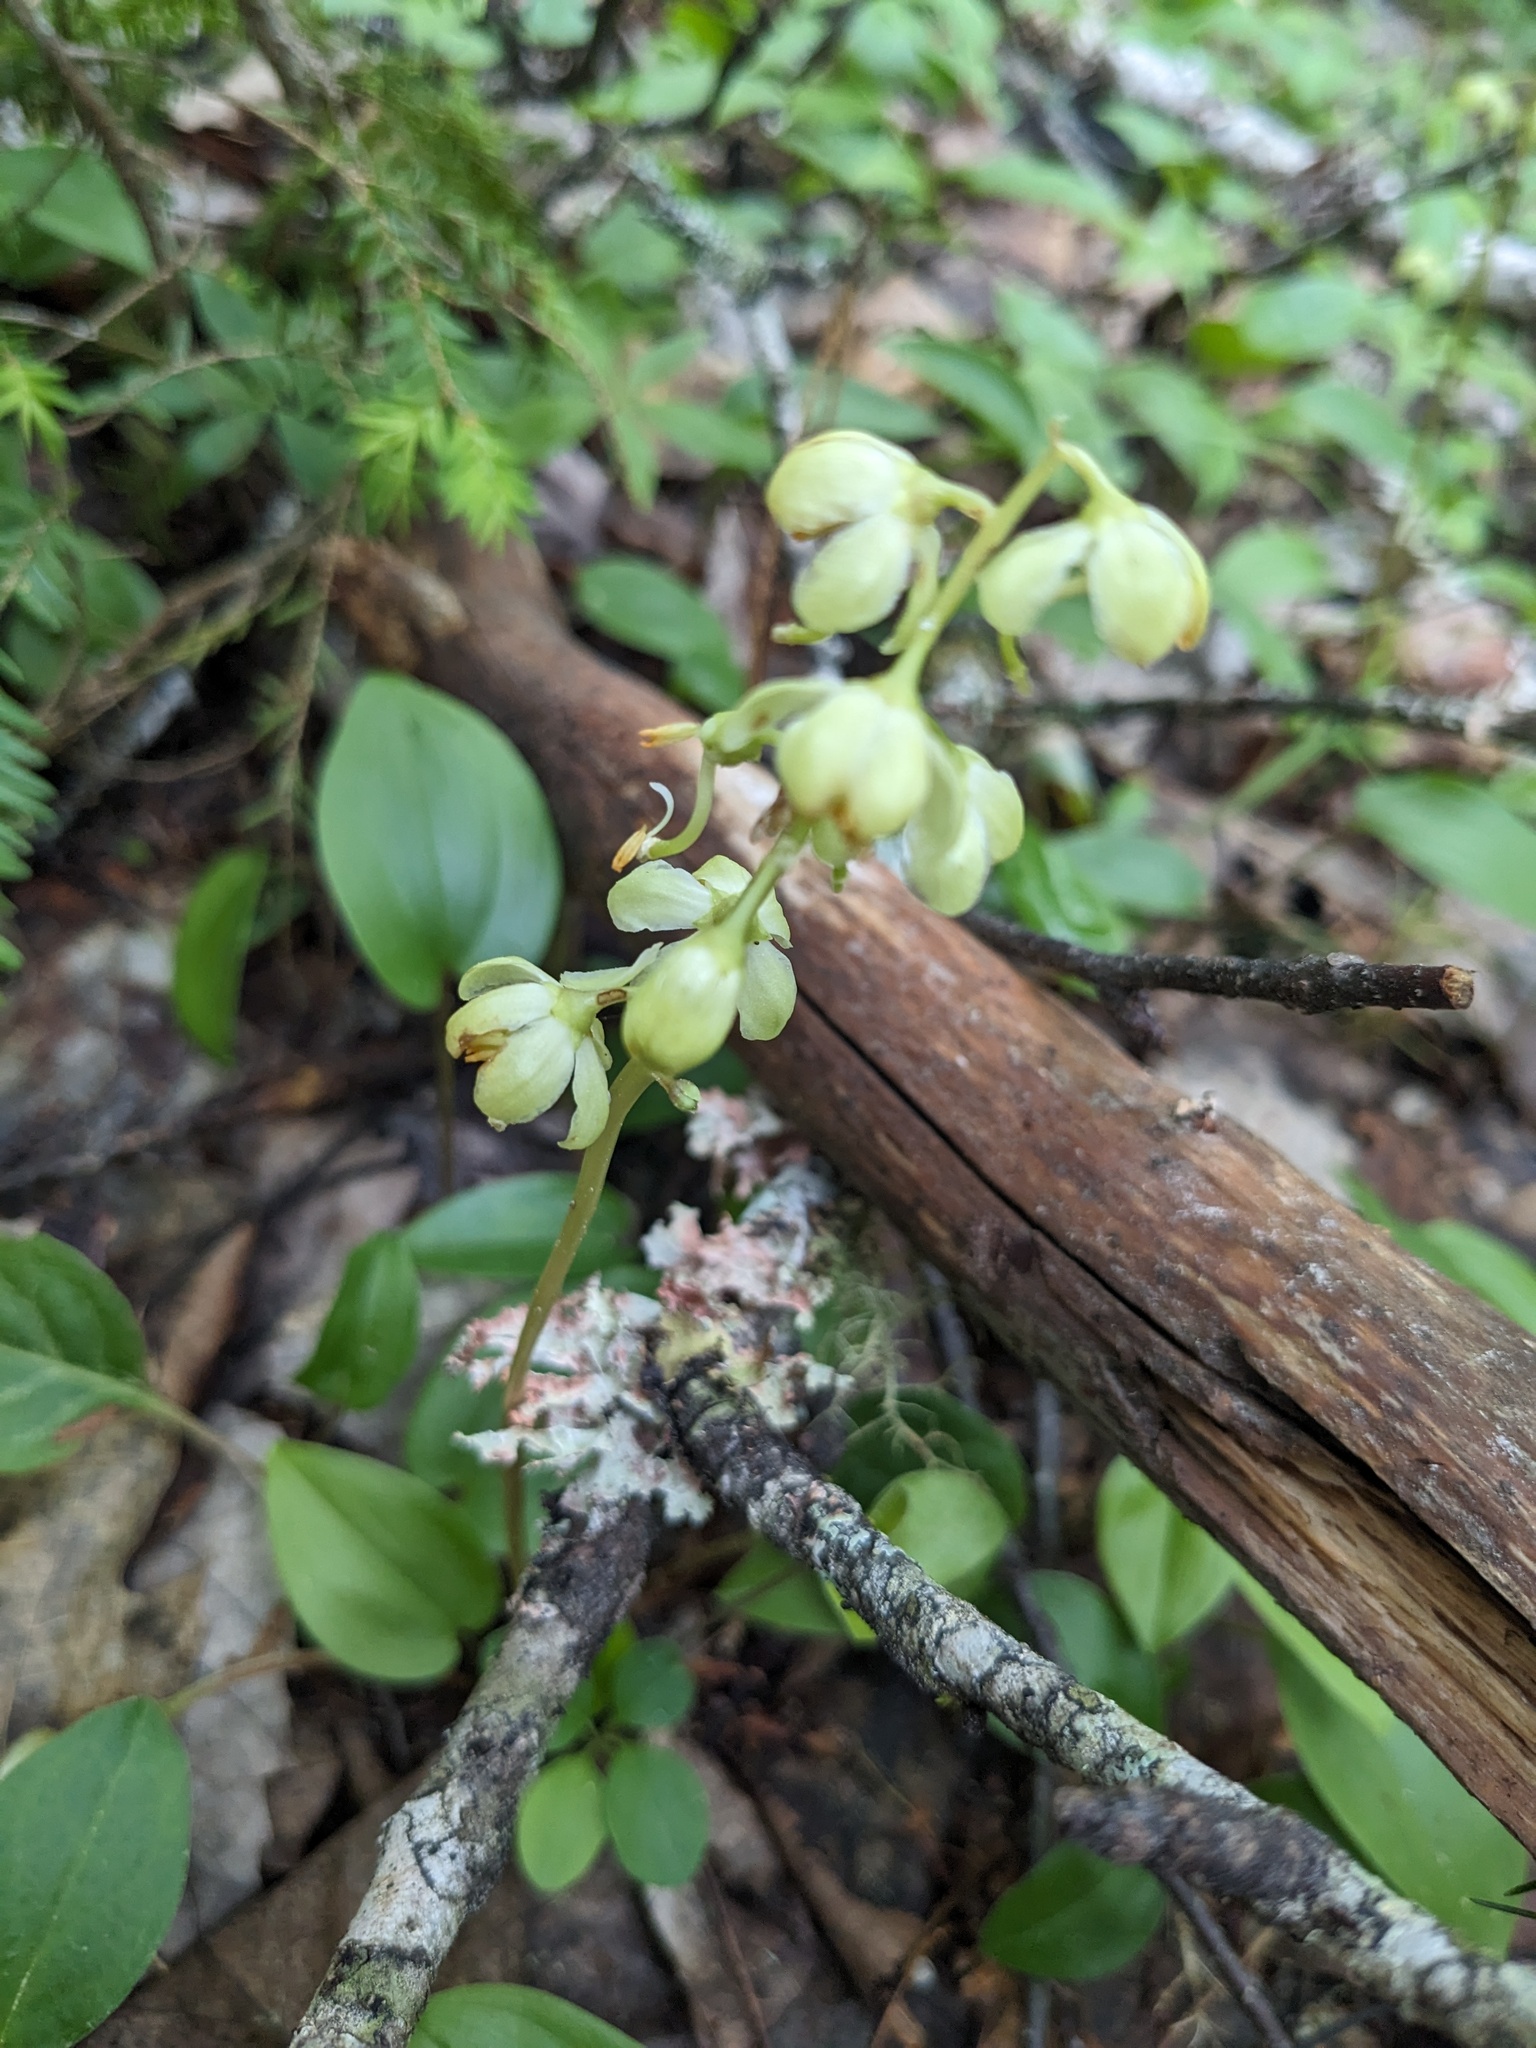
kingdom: Plantae
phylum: Tracheophyta
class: Magnoliopsida
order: Ericales
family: Ericaceae
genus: Pyrola
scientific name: Pyrola chlorantha
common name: Green wintergreen
